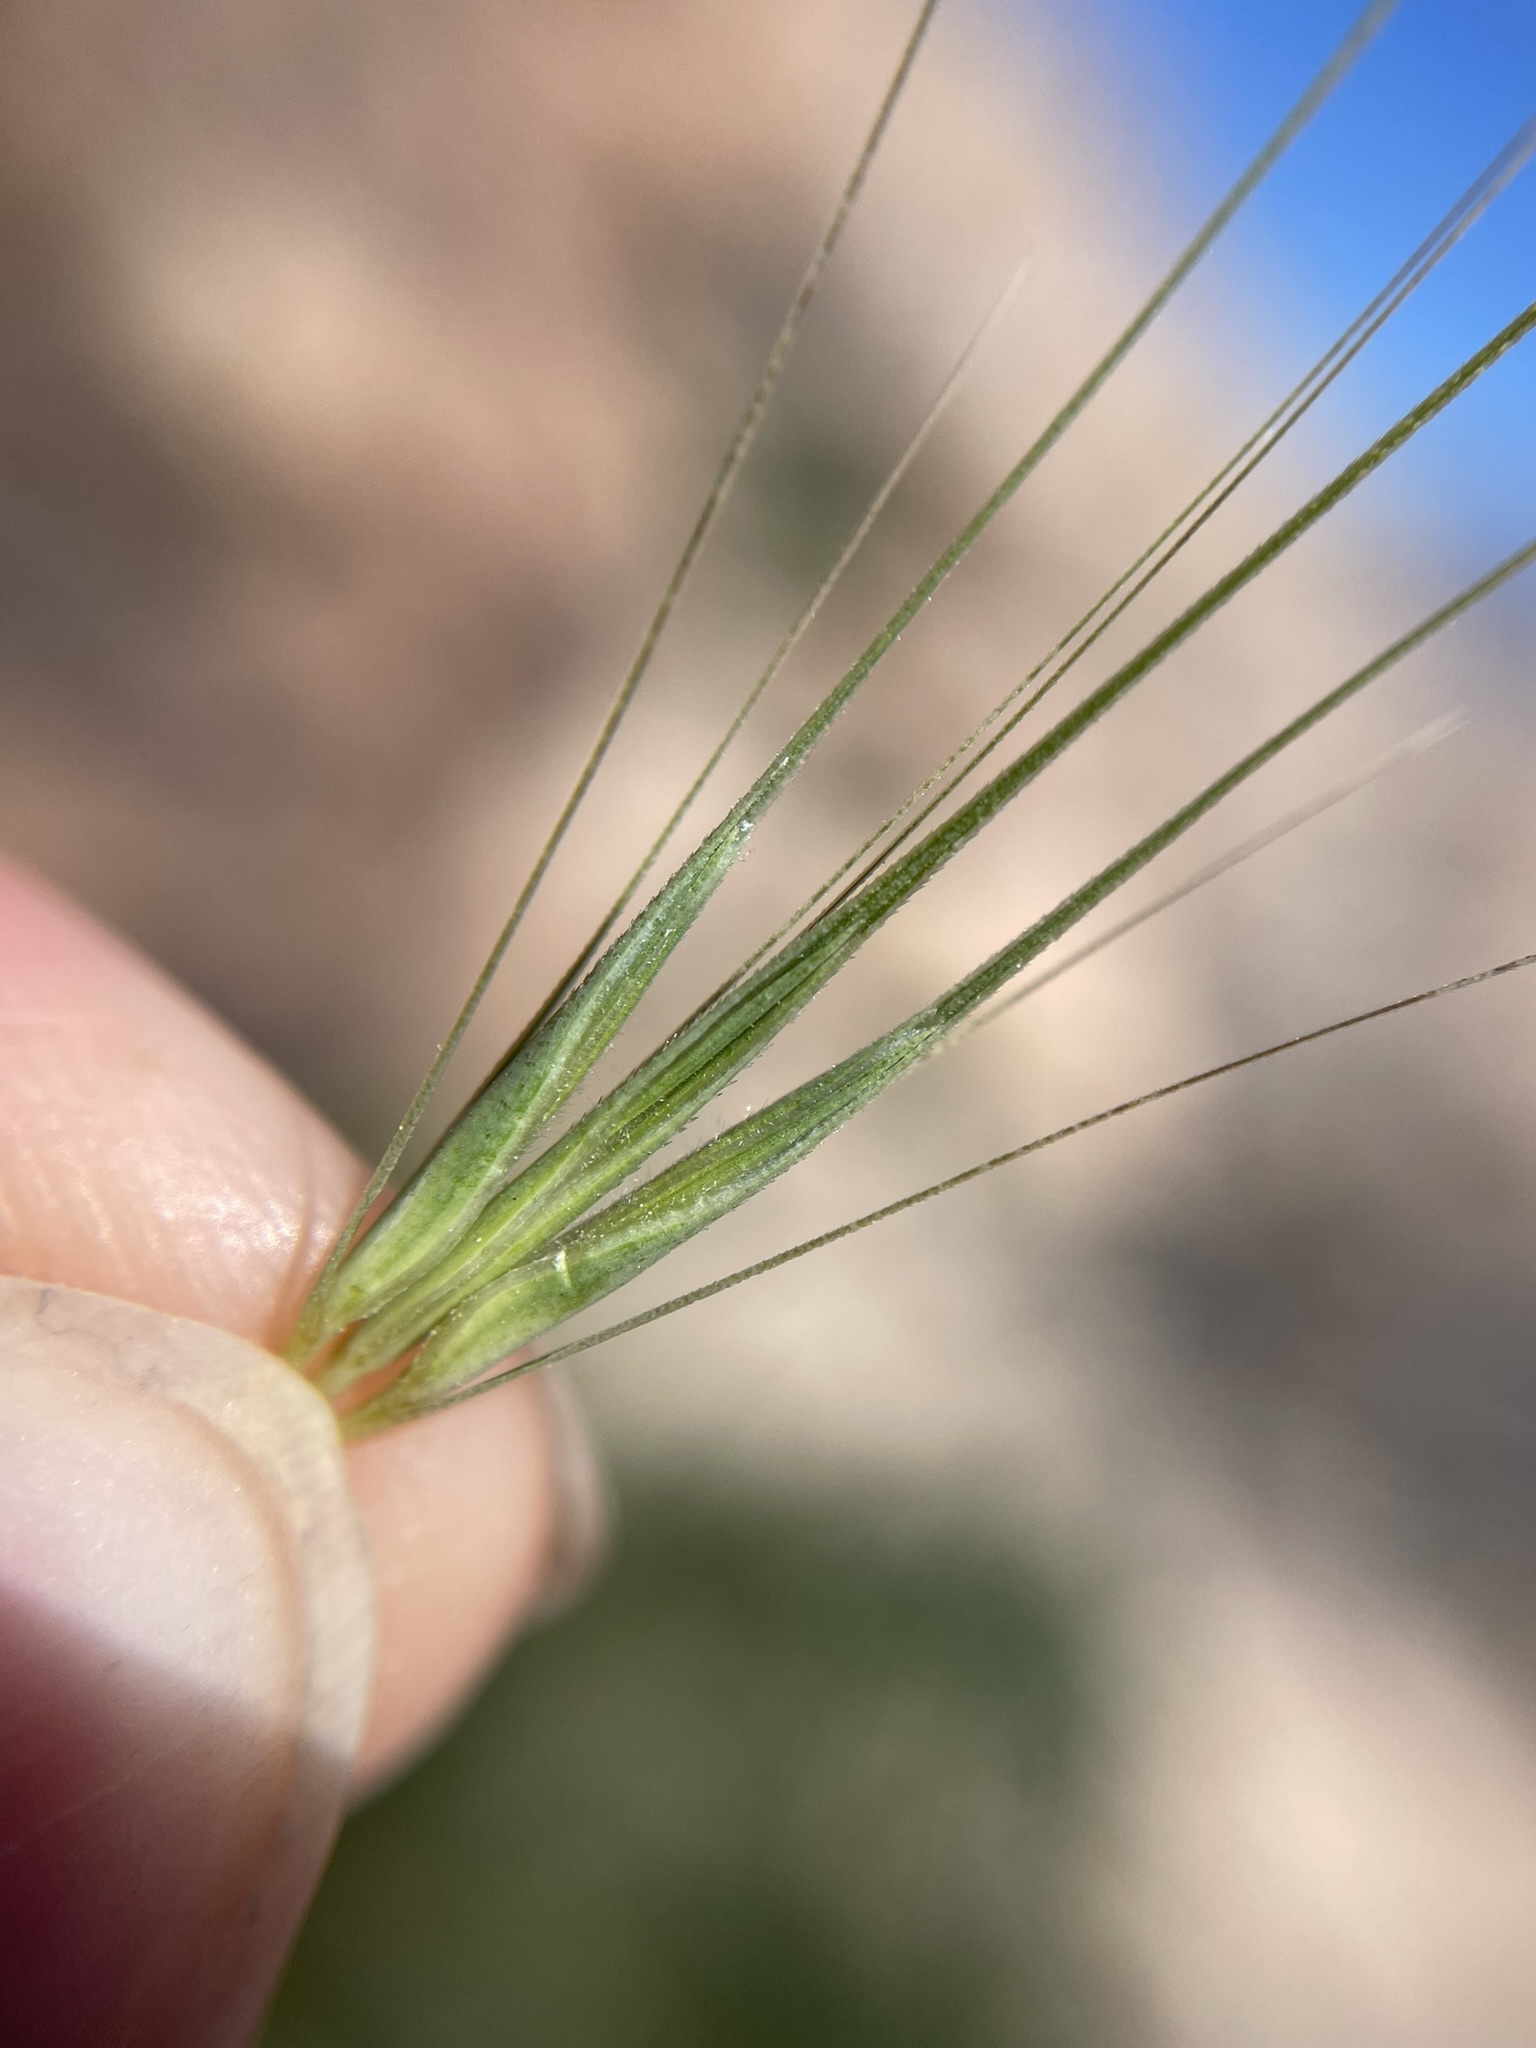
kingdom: Plantae
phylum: Tracheophyta
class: Liliopsida
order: Poales
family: Poaceae
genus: Hordeum
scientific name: Hordeum murinum
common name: Wall barley
